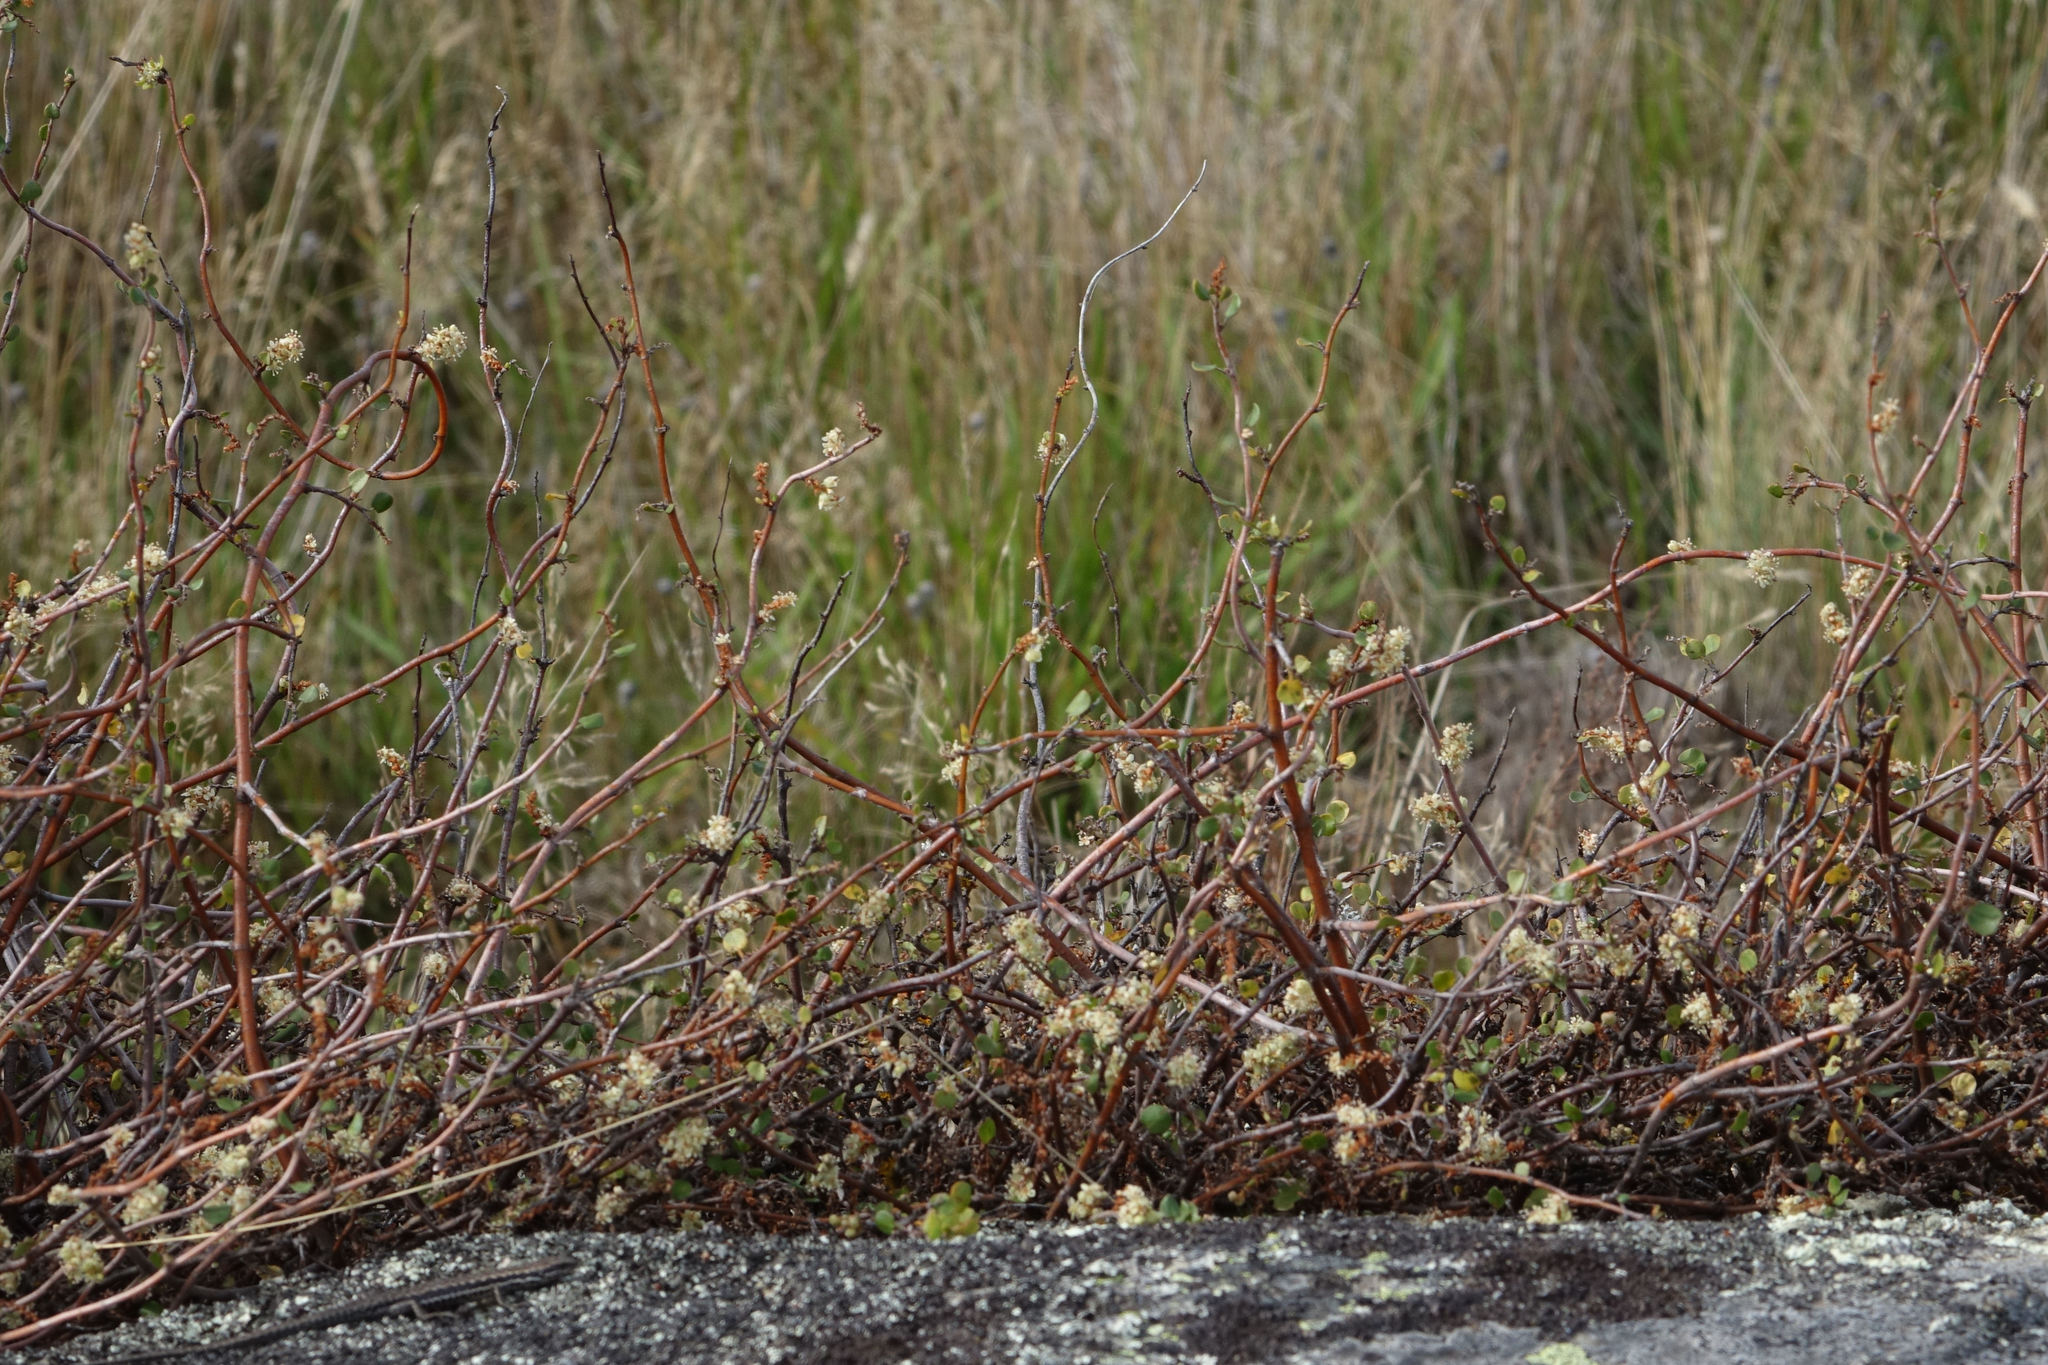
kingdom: Plantae
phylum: Tracheophyta
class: Magnoliopsida
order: Caryophyllales
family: Polygonaceae
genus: Muehlenbeckia
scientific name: Muehlenbeckia complexa
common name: Wireplant
